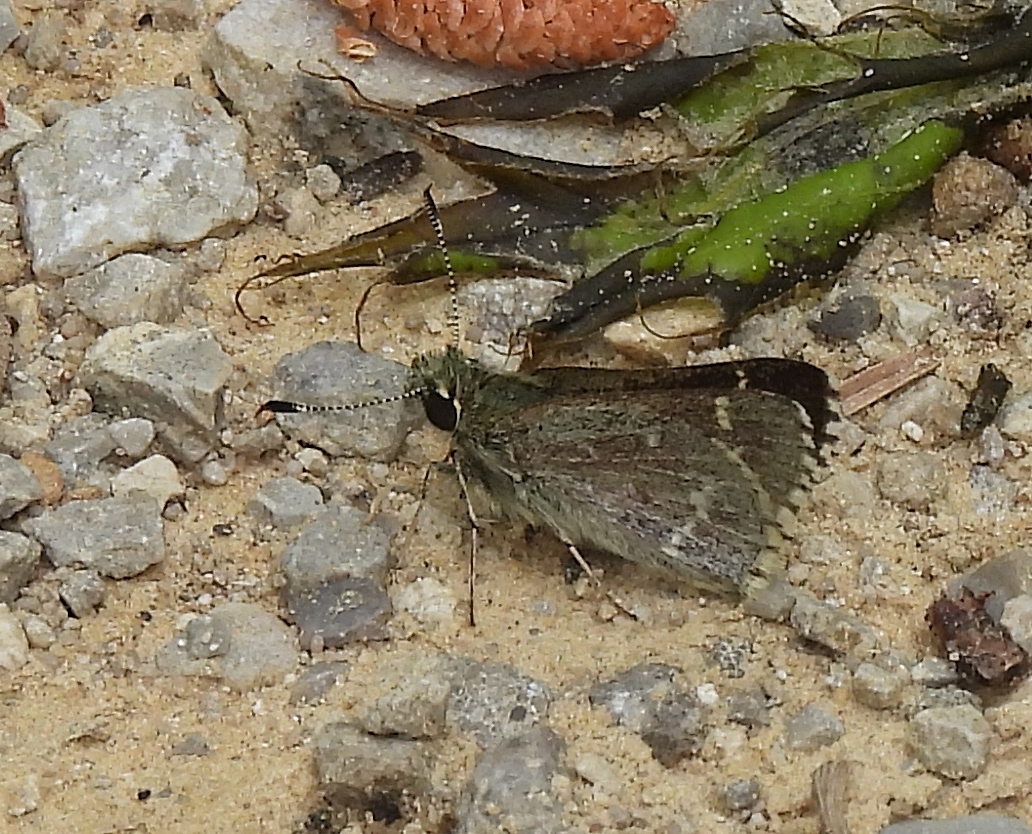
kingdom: Animalia
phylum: Arthropoda
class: Insecta
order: Lepidoptera
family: Hesperiidae
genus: Mastor
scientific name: Mastor hegon
